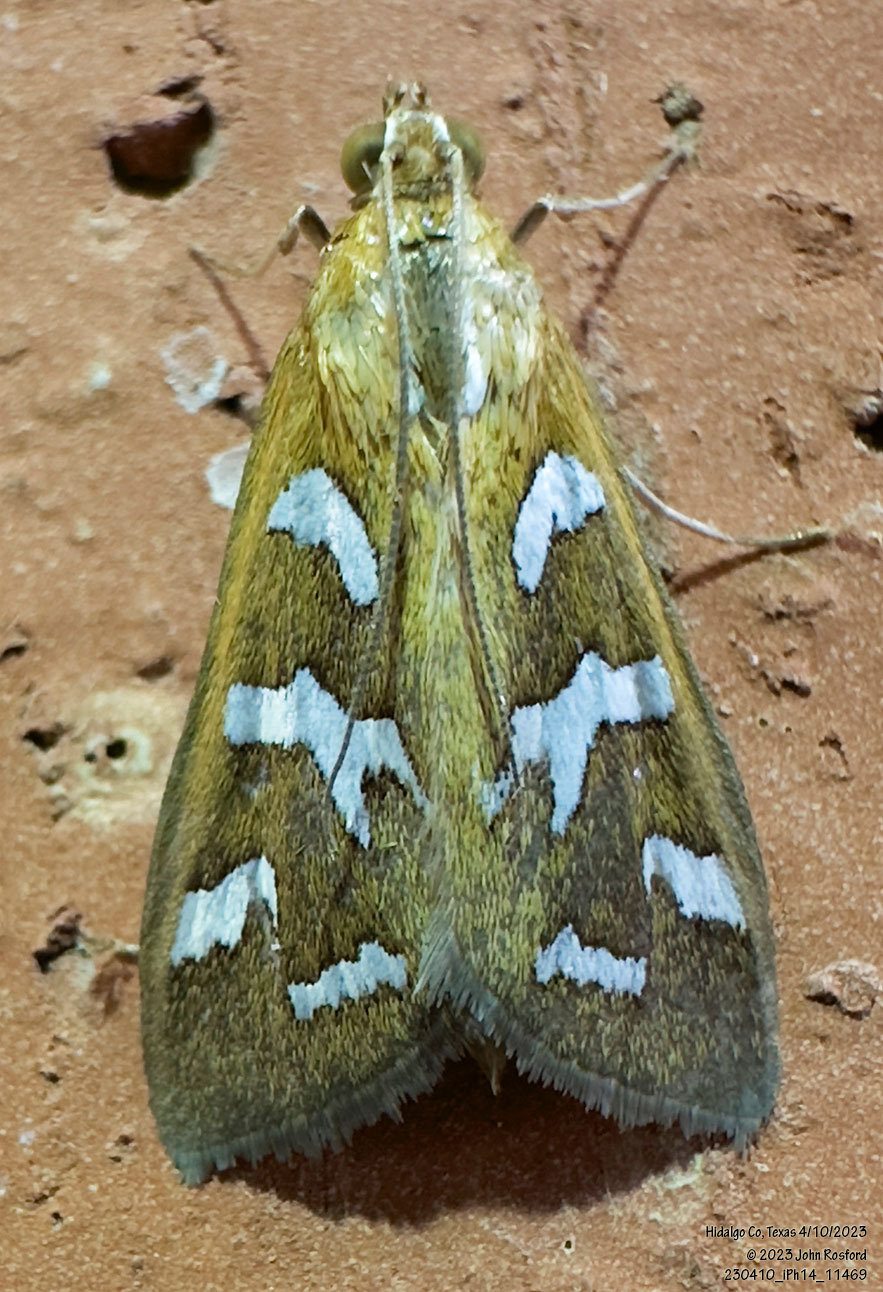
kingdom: Animalia
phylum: Arthropoda
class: Insecta
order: Lepidoptera
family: Crambidae
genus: Diastictis
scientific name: Diastictis fracturalis
